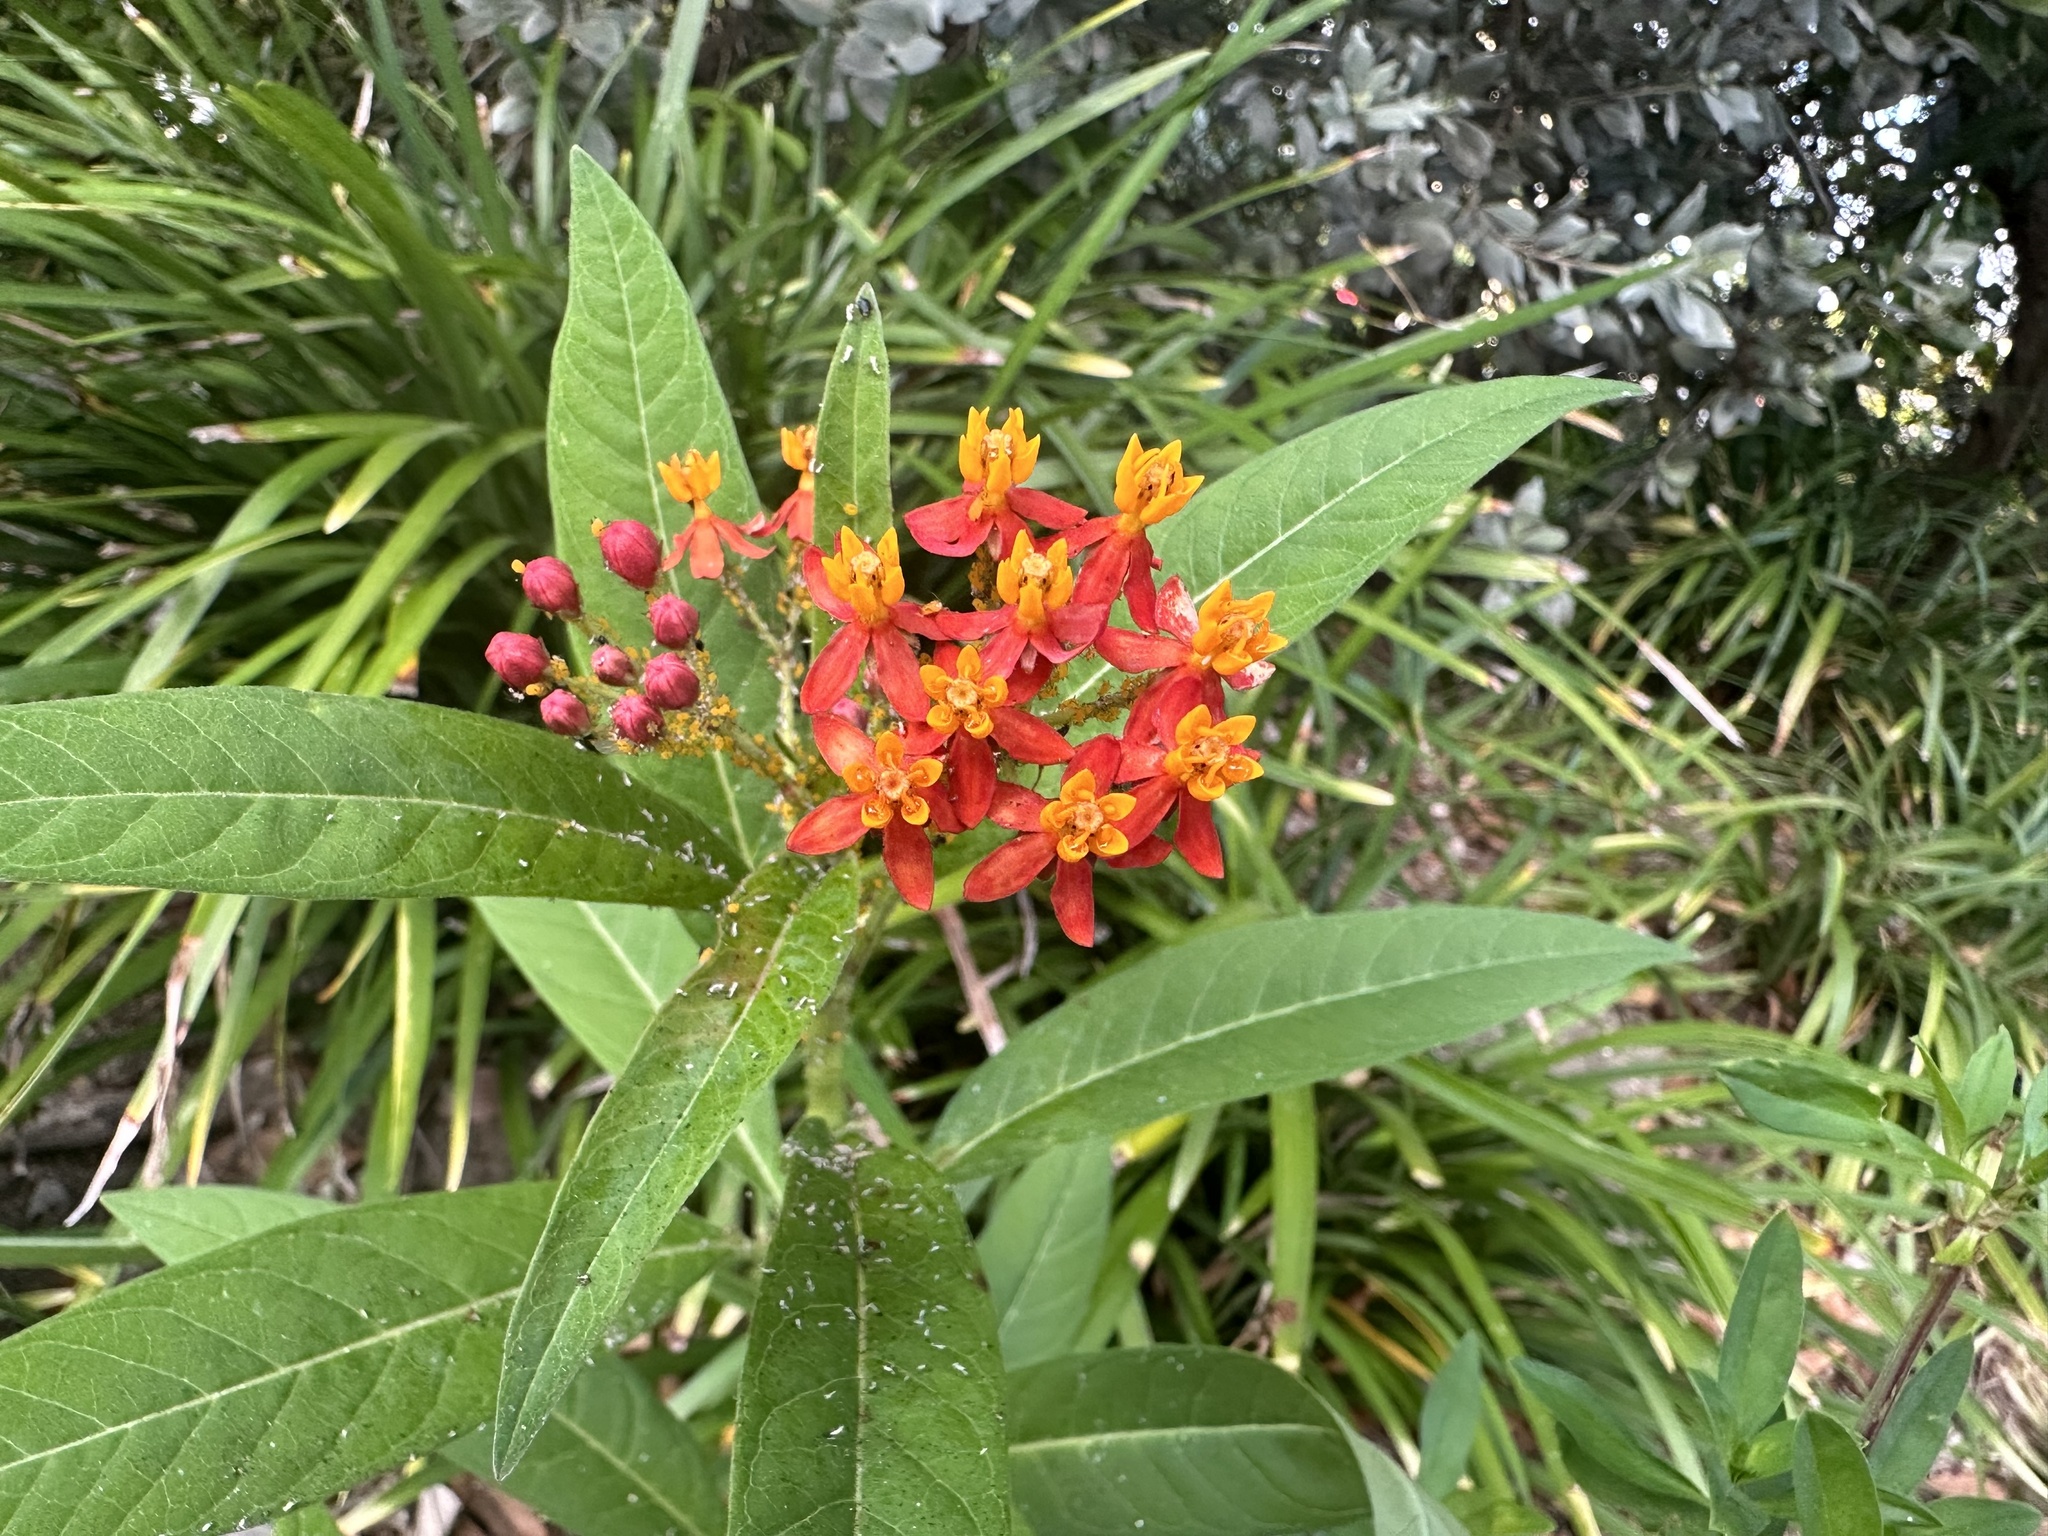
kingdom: Plantae
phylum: Tracheophyta
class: Magnoliopsida
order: Gentianales
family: Apocynaceae
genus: Asclepias
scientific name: Asclepias curassavica
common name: Bloodflower
